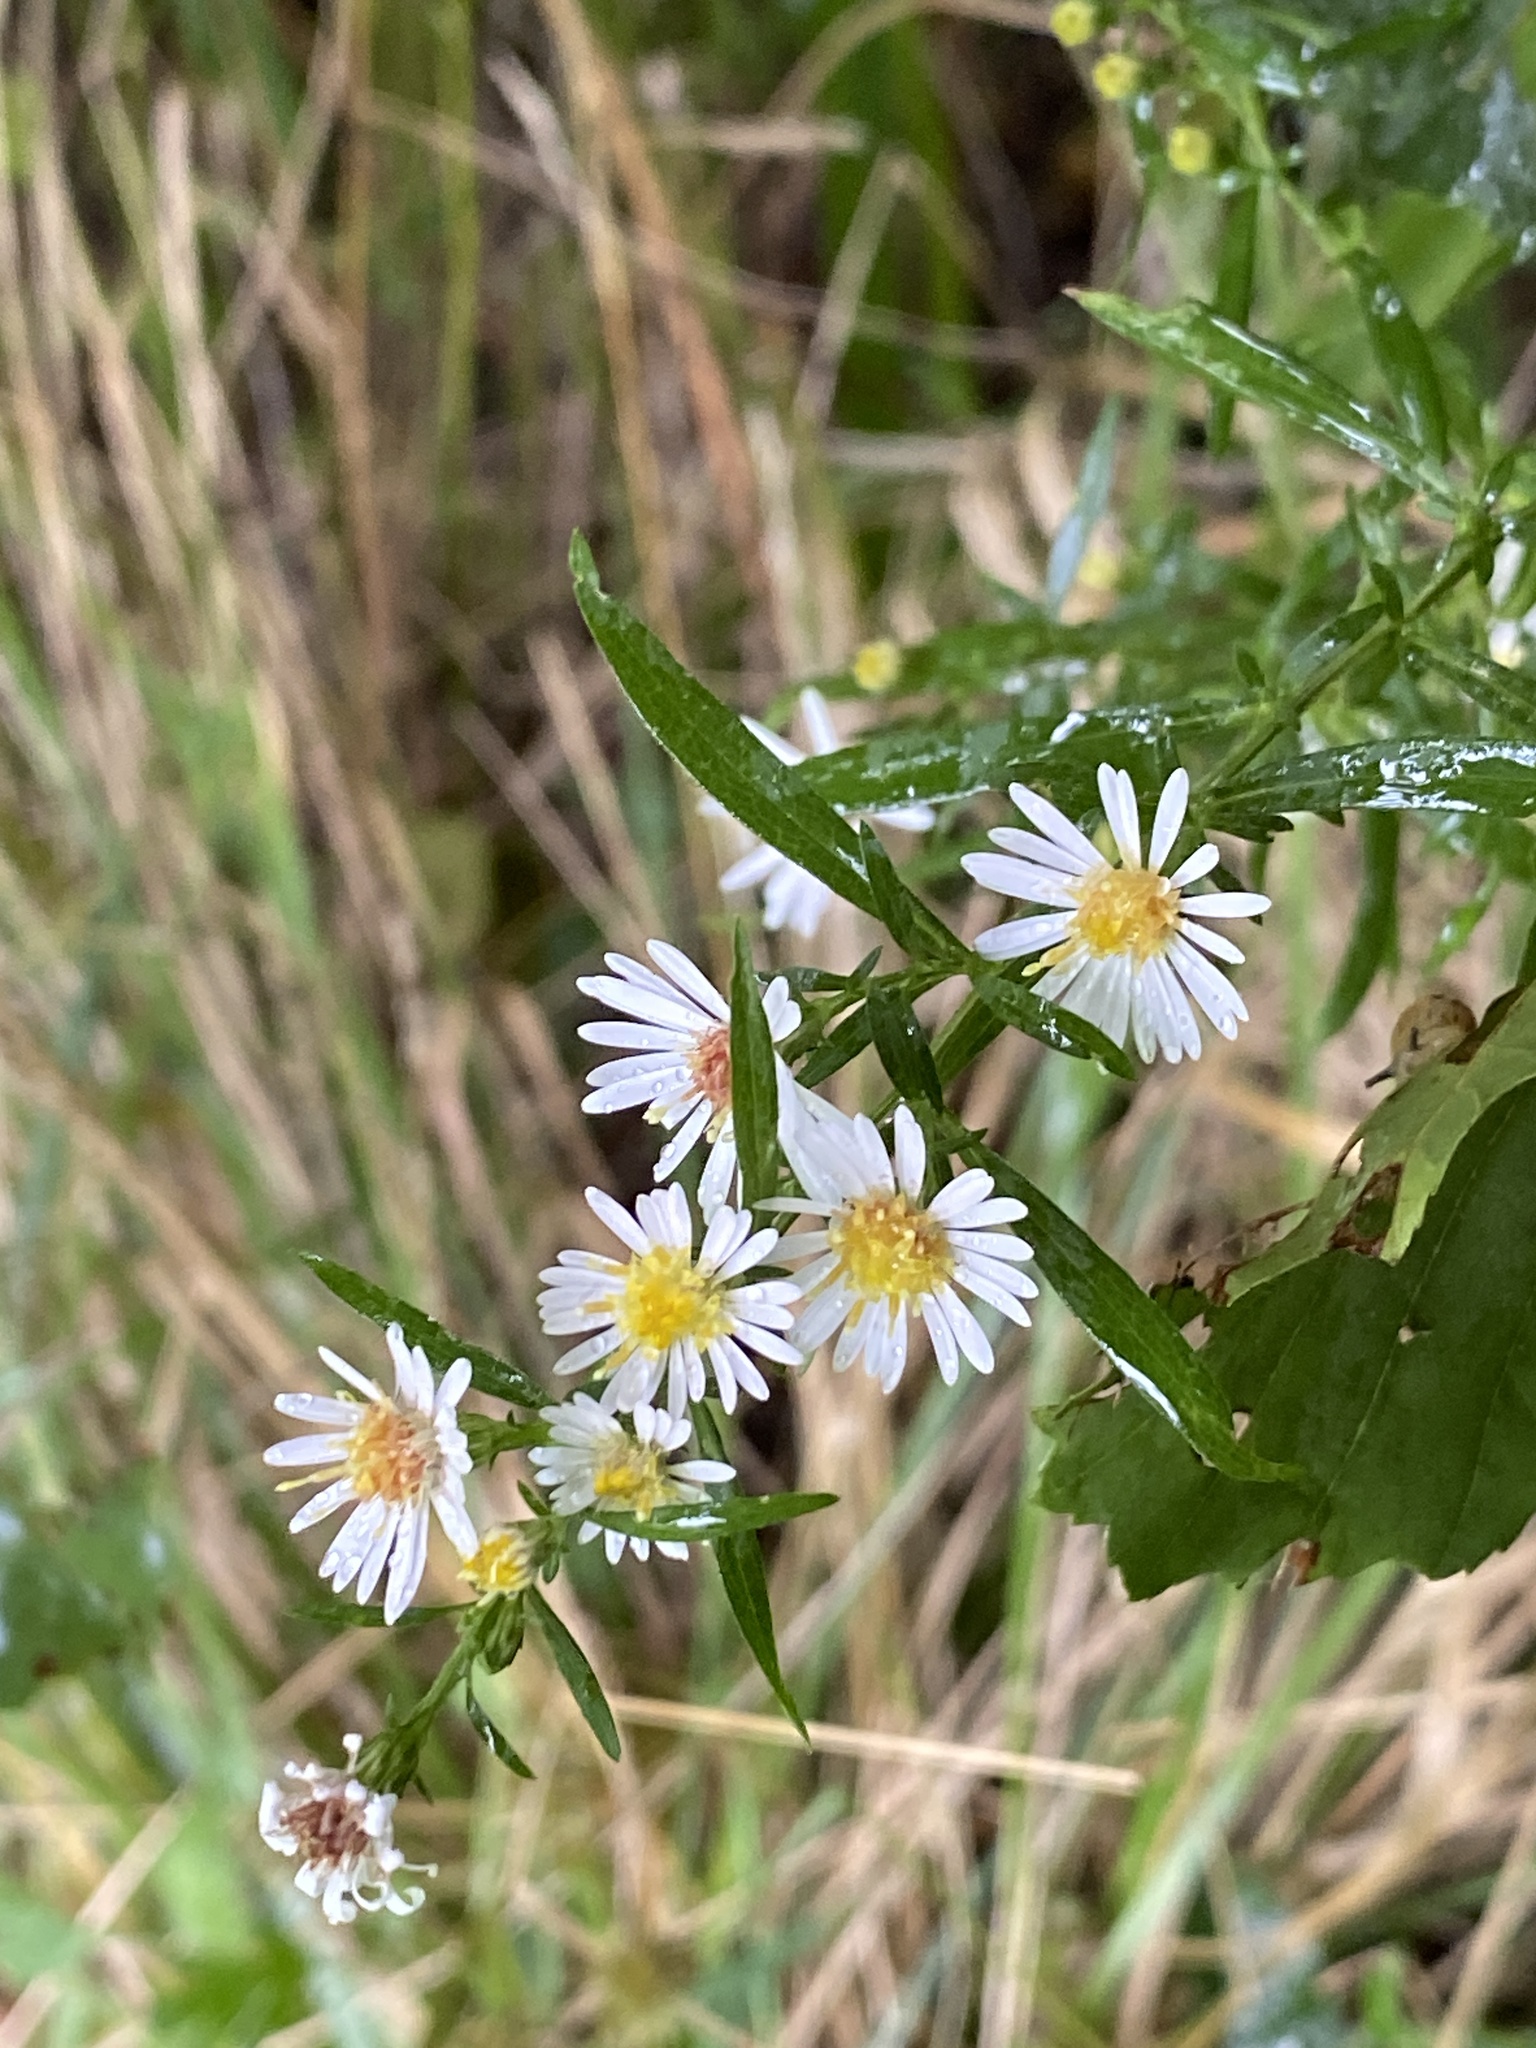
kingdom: Plantae
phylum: Tracheophyta
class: Magnoliopsida
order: Asterales
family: Asteraceae
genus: Symphyotrichum
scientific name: Symphyotrichum lanceolatum
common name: Panicled aster
